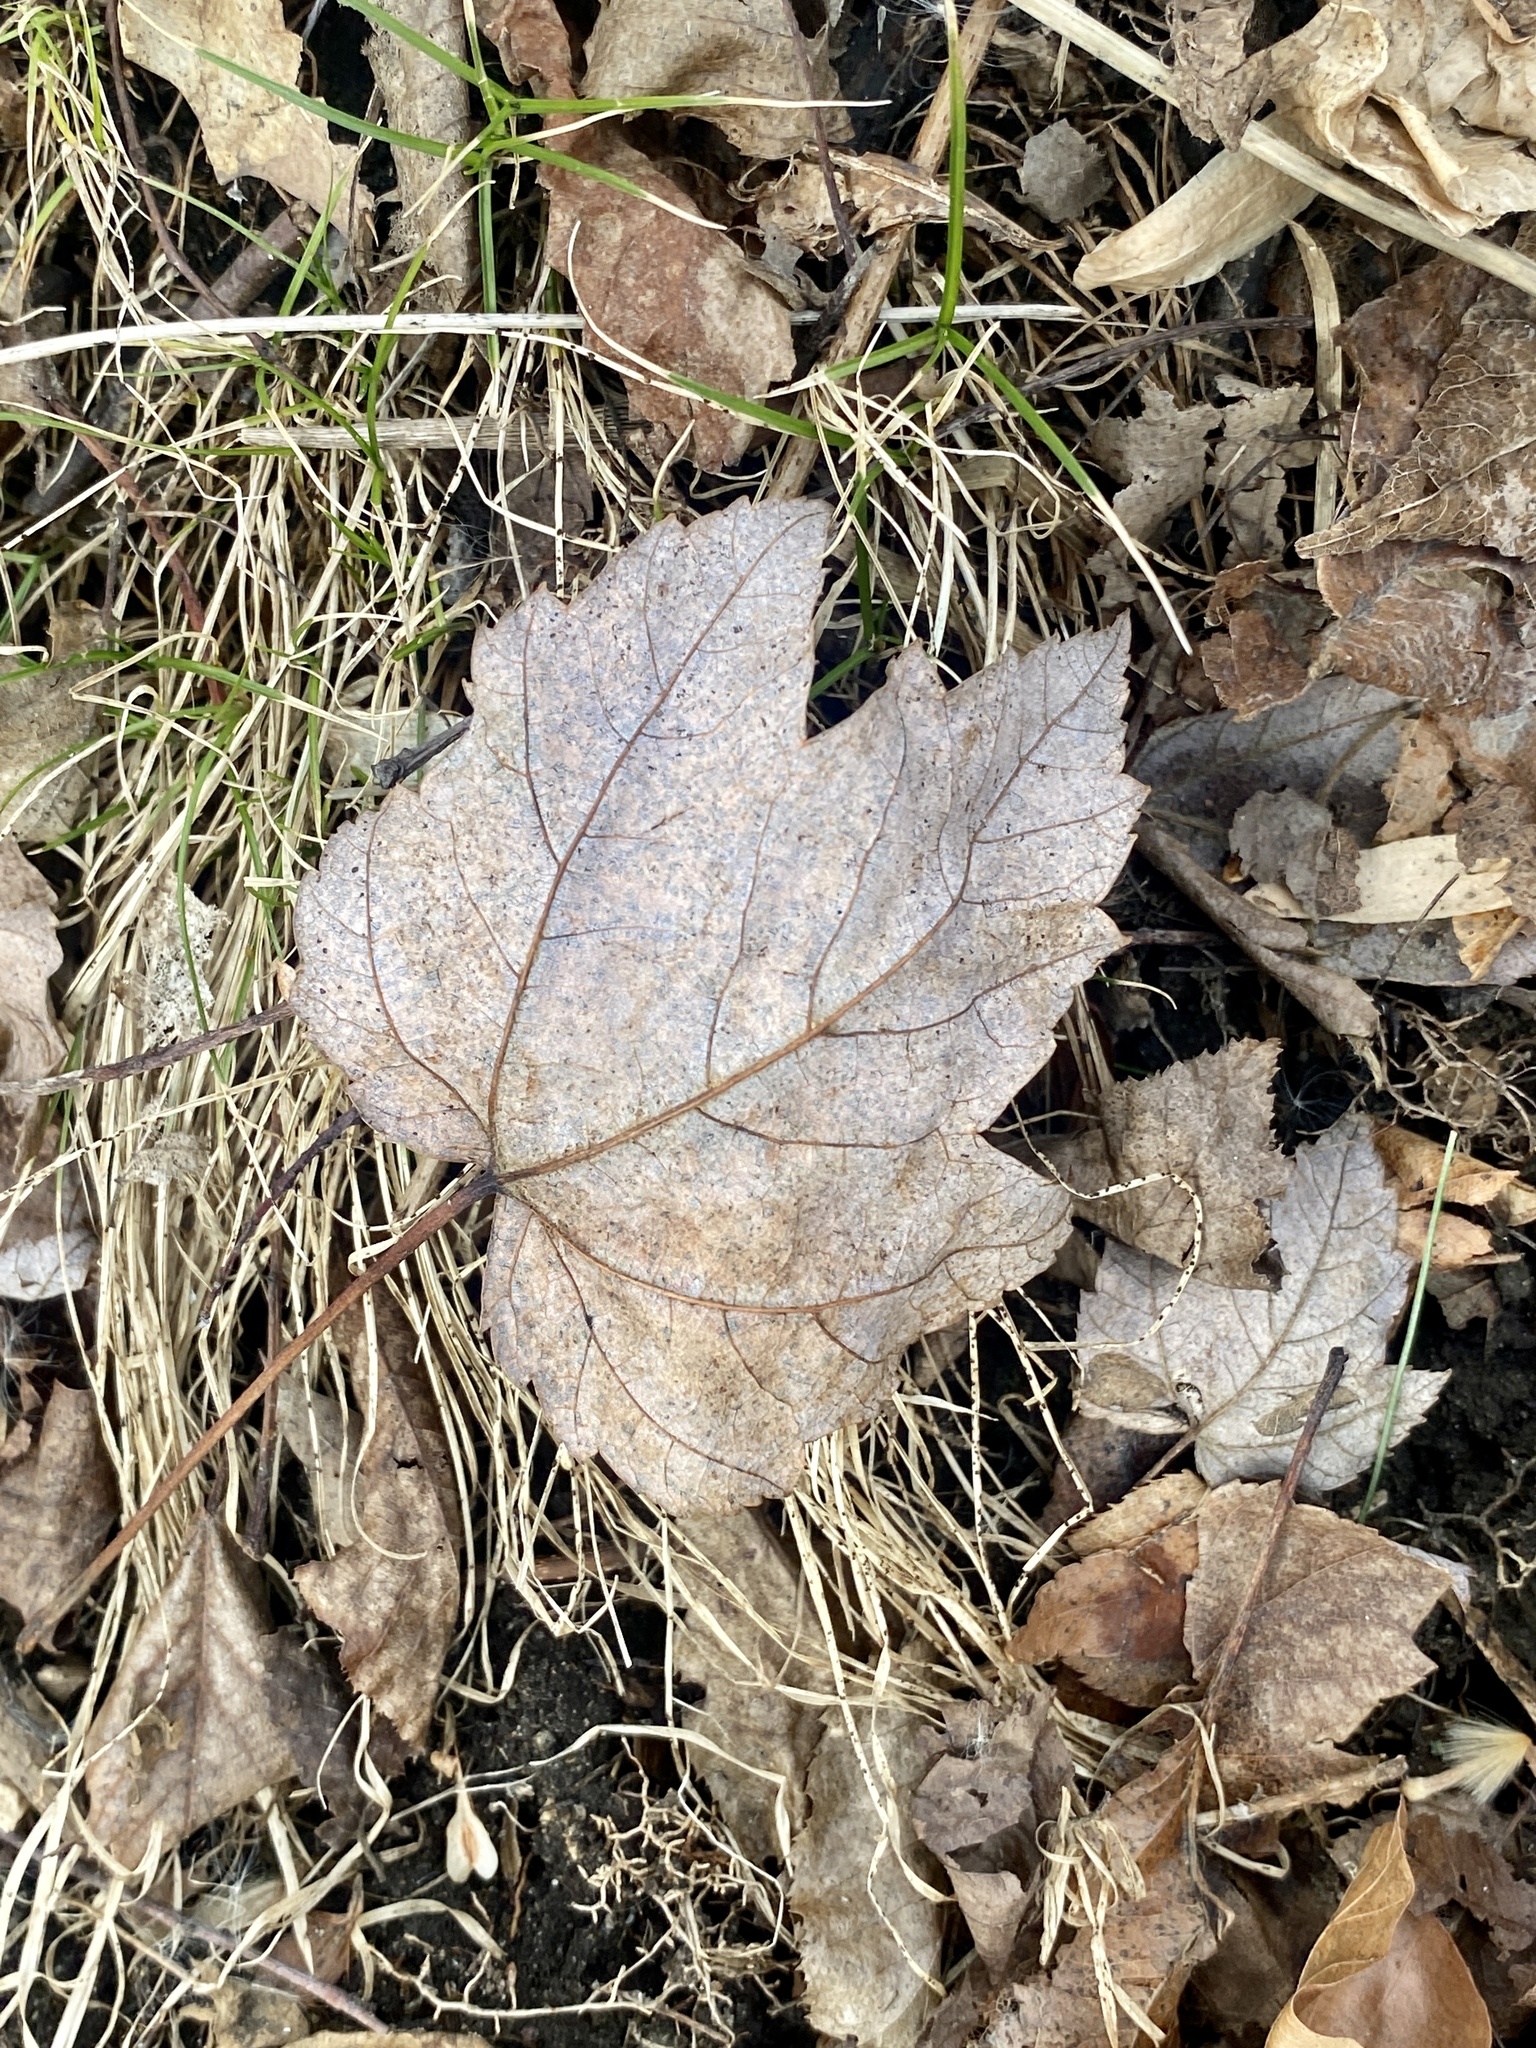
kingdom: Plantae
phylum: Tracheophyta
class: Magnoliopsida
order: Sapindales
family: Sapindaceae
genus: Acer
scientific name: Acer rubrum
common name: Red maple
